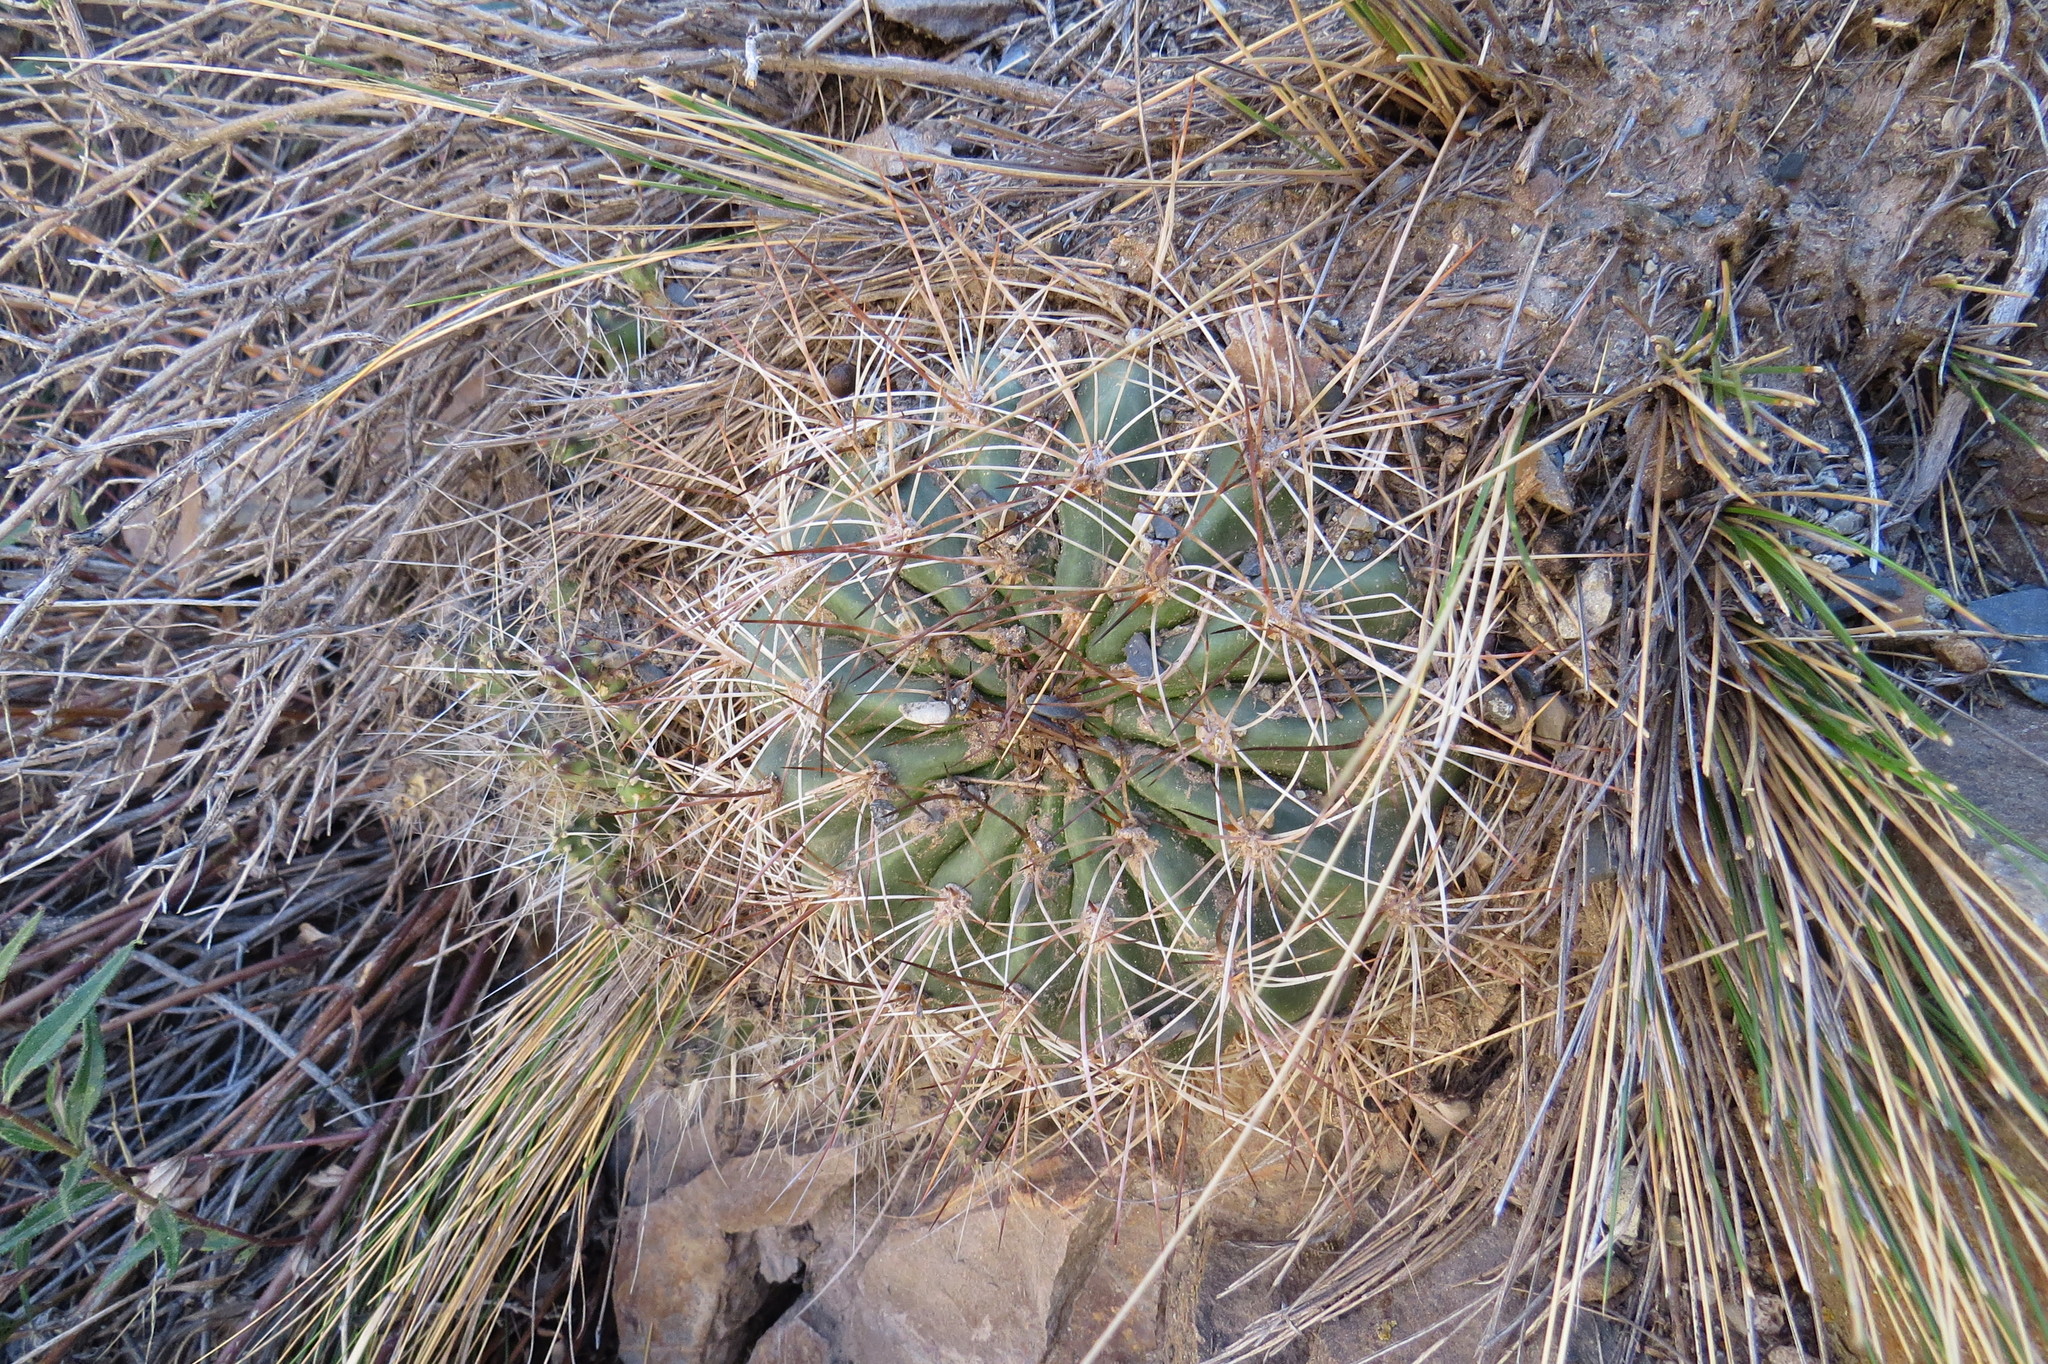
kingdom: Plantae
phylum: Tracheophyta
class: Magnoliopsida
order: Caryophyllales
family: Cactaceae
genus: Soehrensia
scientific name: Soehrensia formosa
